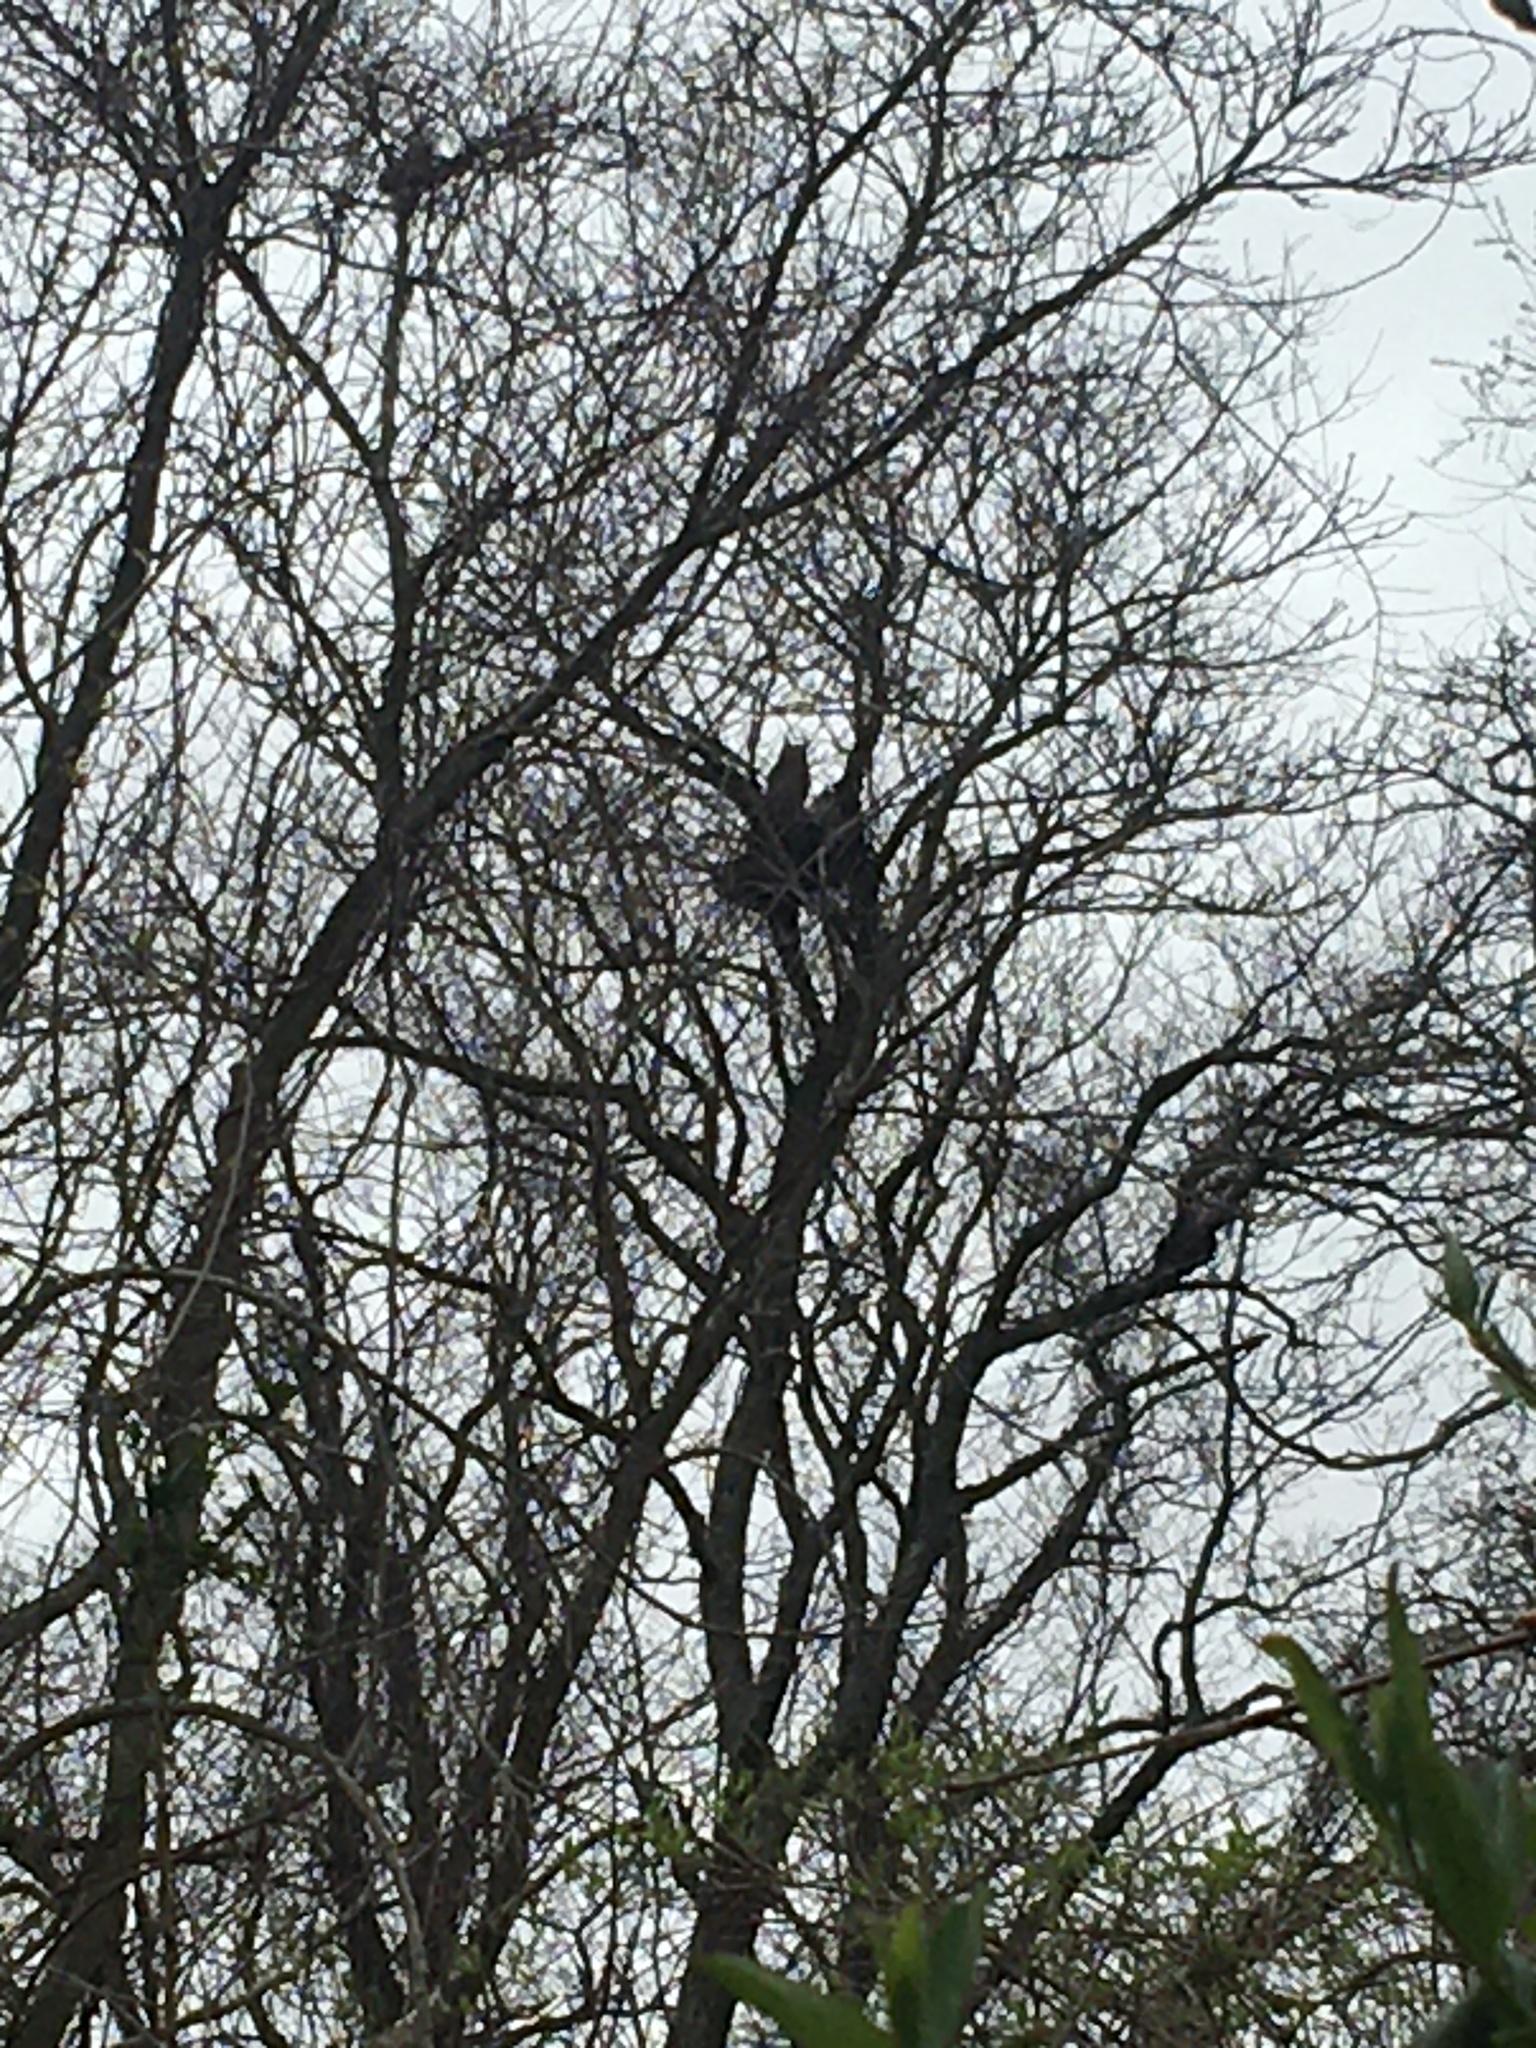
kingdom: Animalia
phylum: Chordata
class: Aves
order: Strigiformes
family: Strigidae
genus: Bubo
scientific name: Bubo virginianus
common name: Great horned owl
